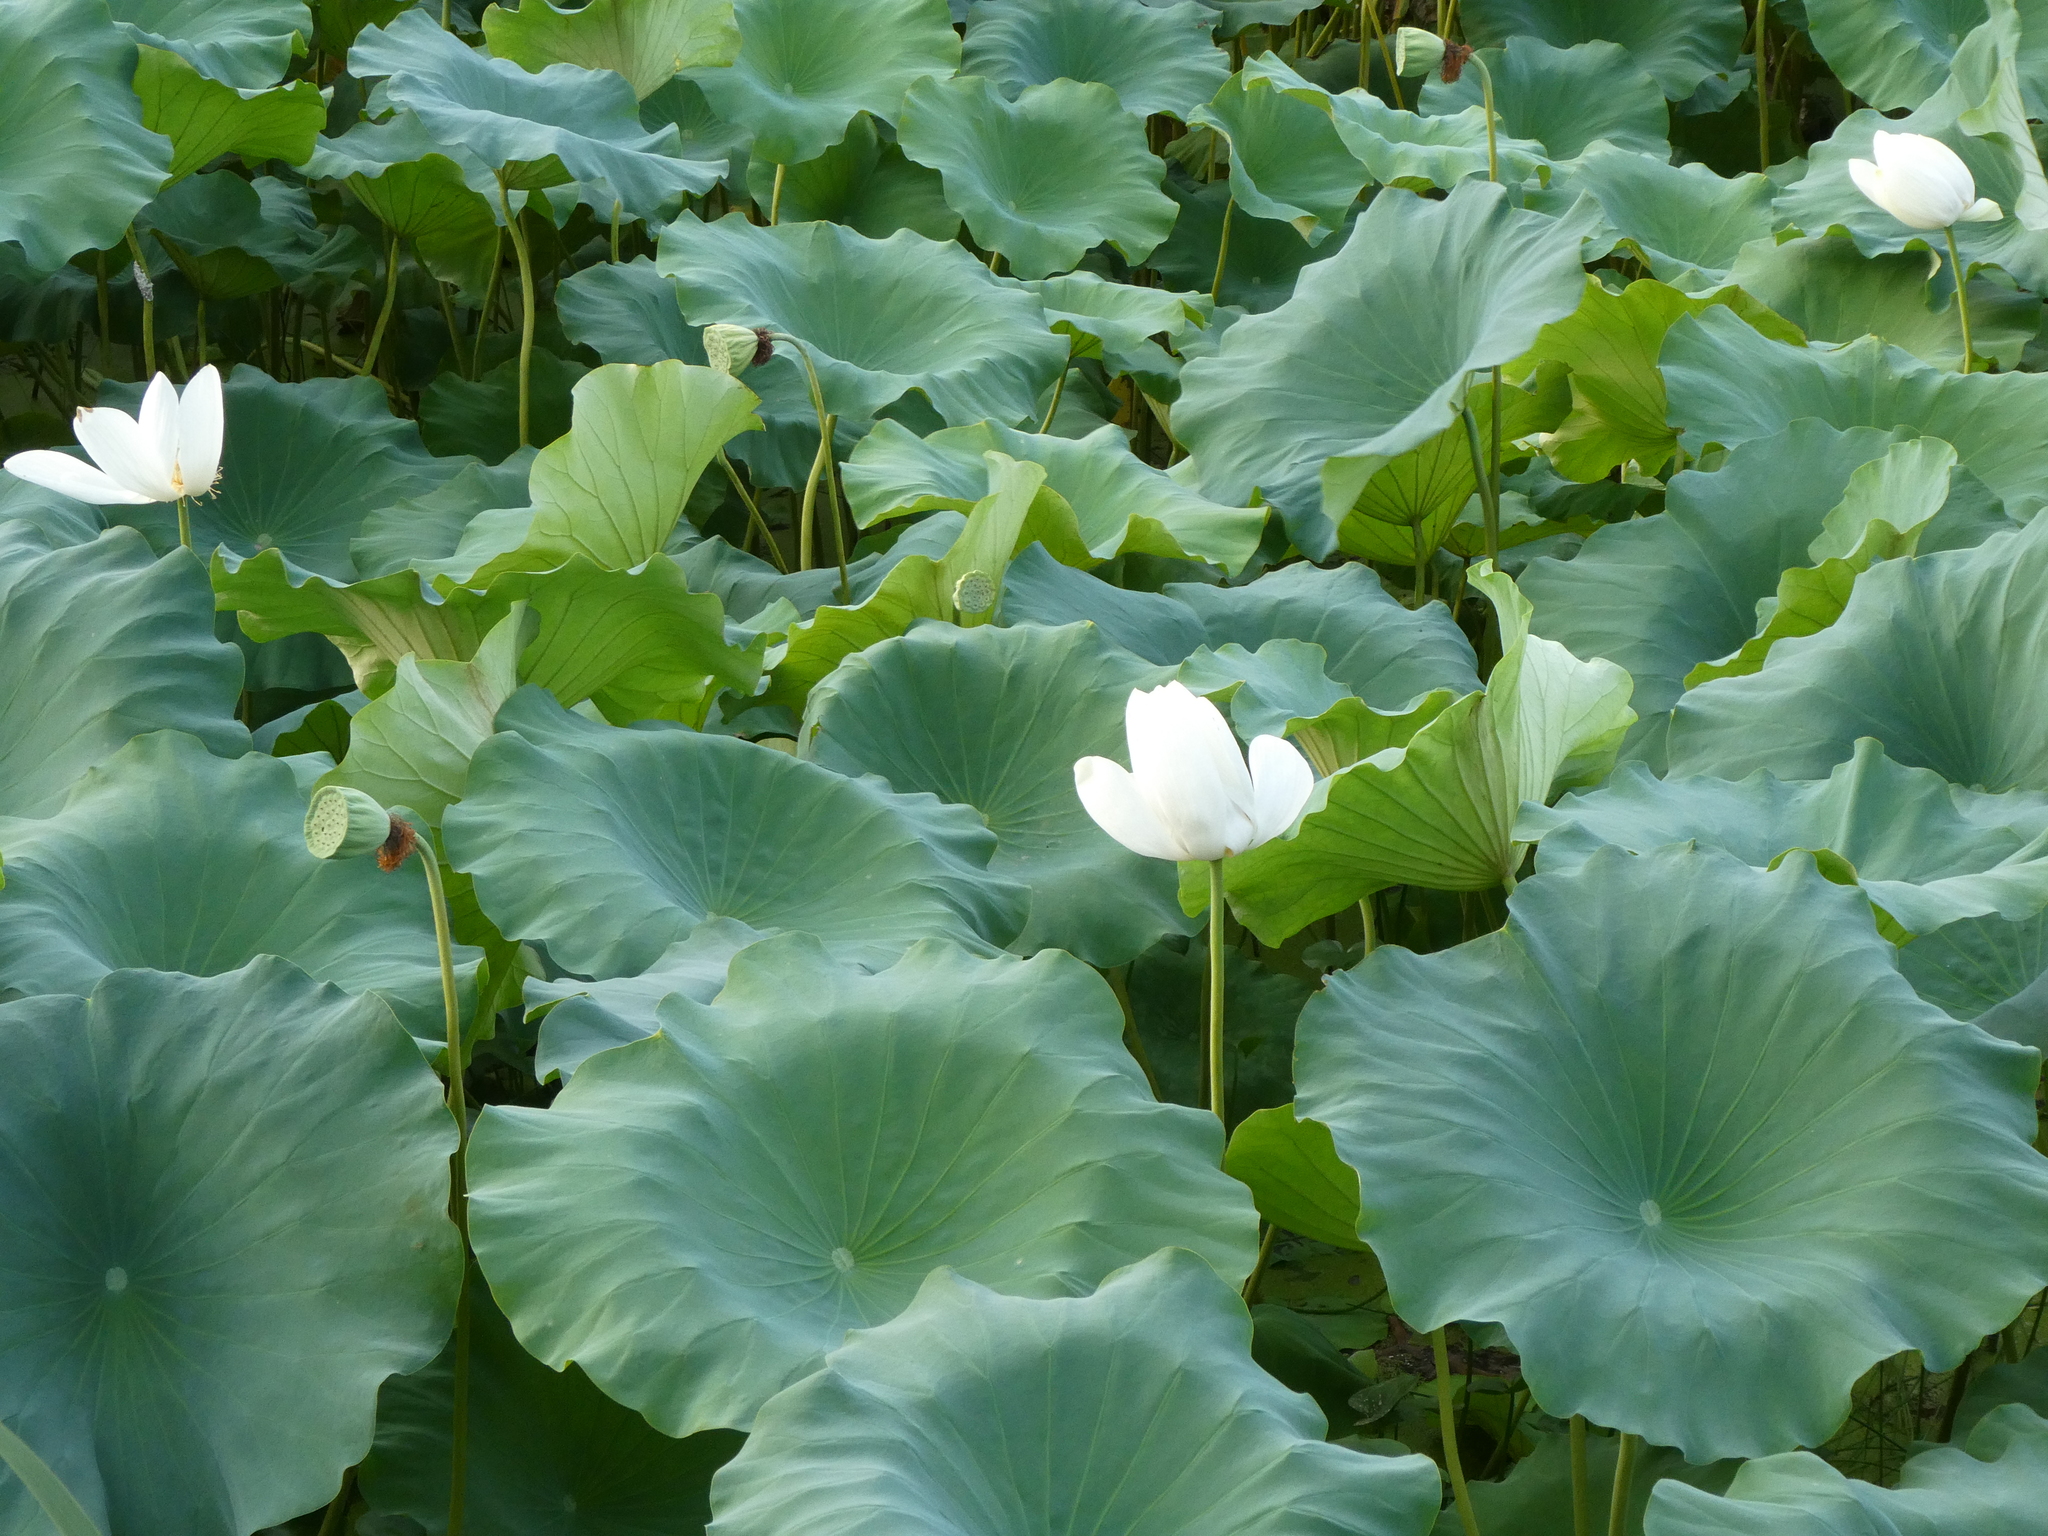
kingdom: Plantae
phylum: Tracheophyta
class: Magnoliopsida
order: Proteales
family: Nelumbonaceae
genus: Nelumbo
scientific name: Nelumbo nucifera
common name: Sacred lotus
